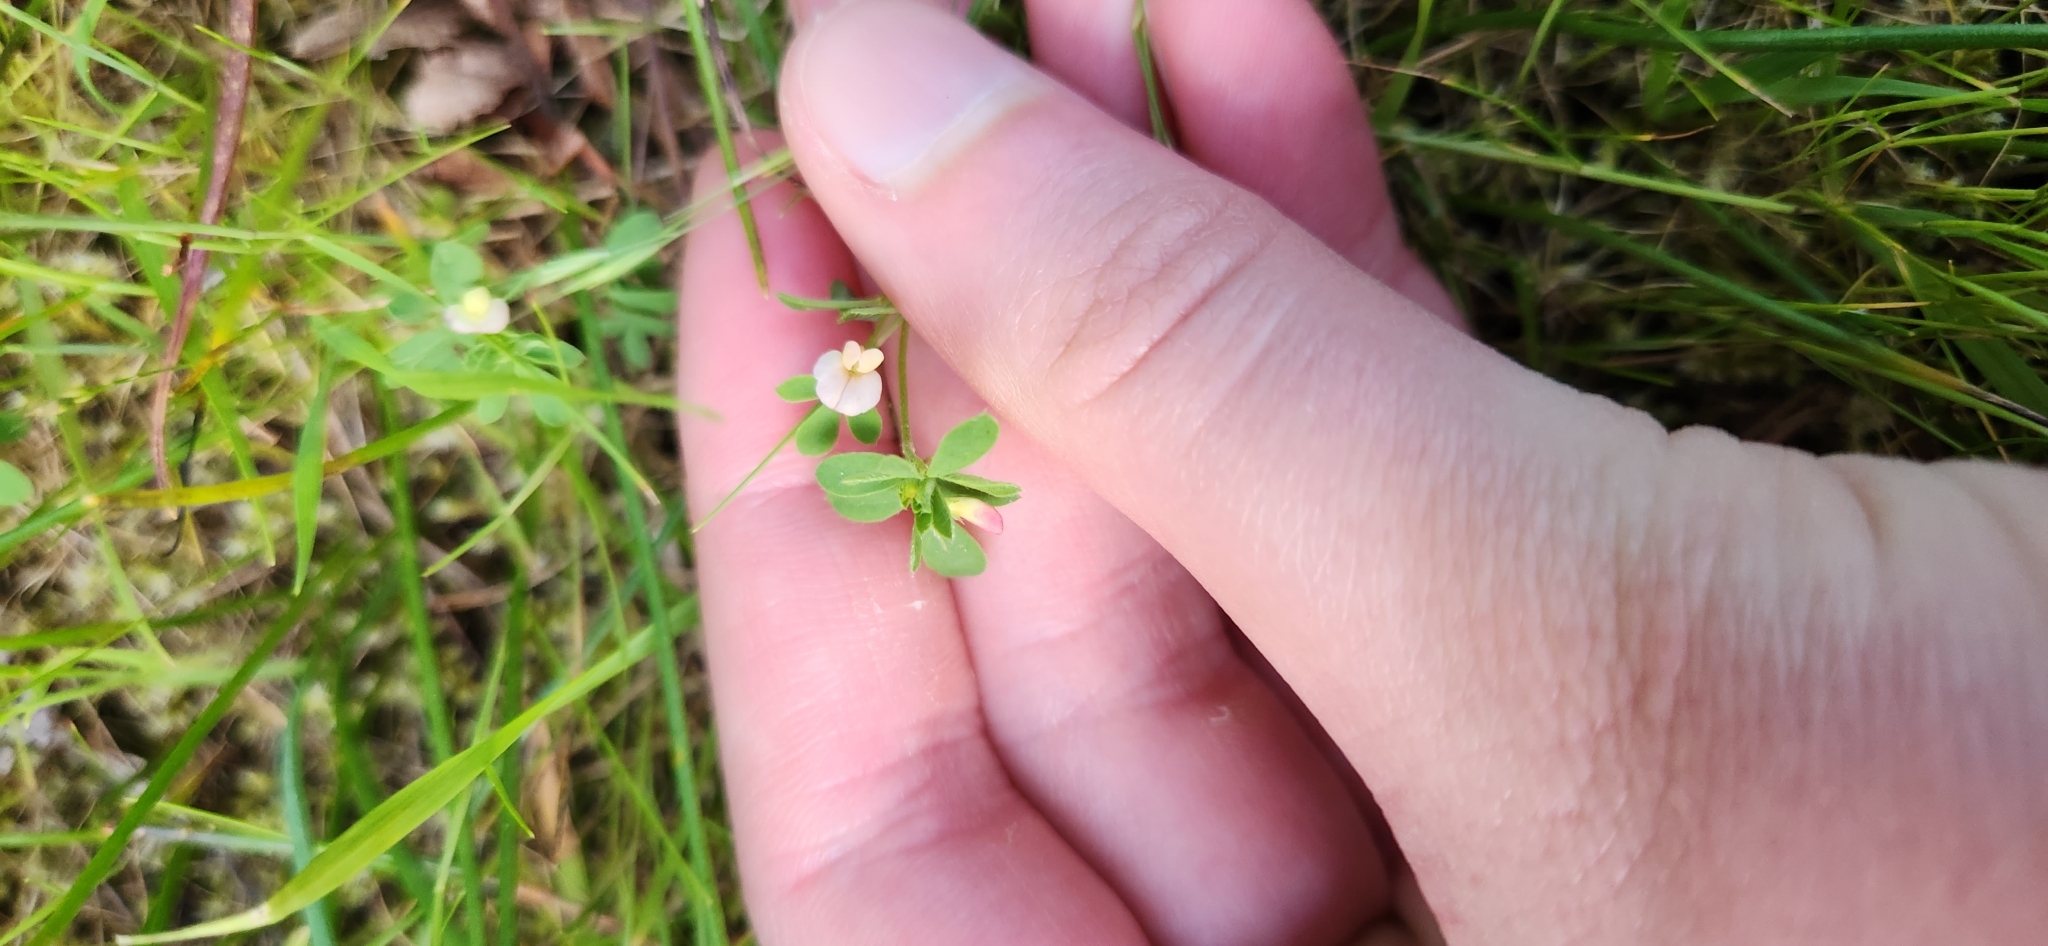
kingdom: Plantae
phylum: Tracheophyta
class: Magnoliopsida
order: Fabales
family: Fabaceae
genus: Acmispon
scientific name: Acmispon parviflorus
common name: Desert deer-vetch
